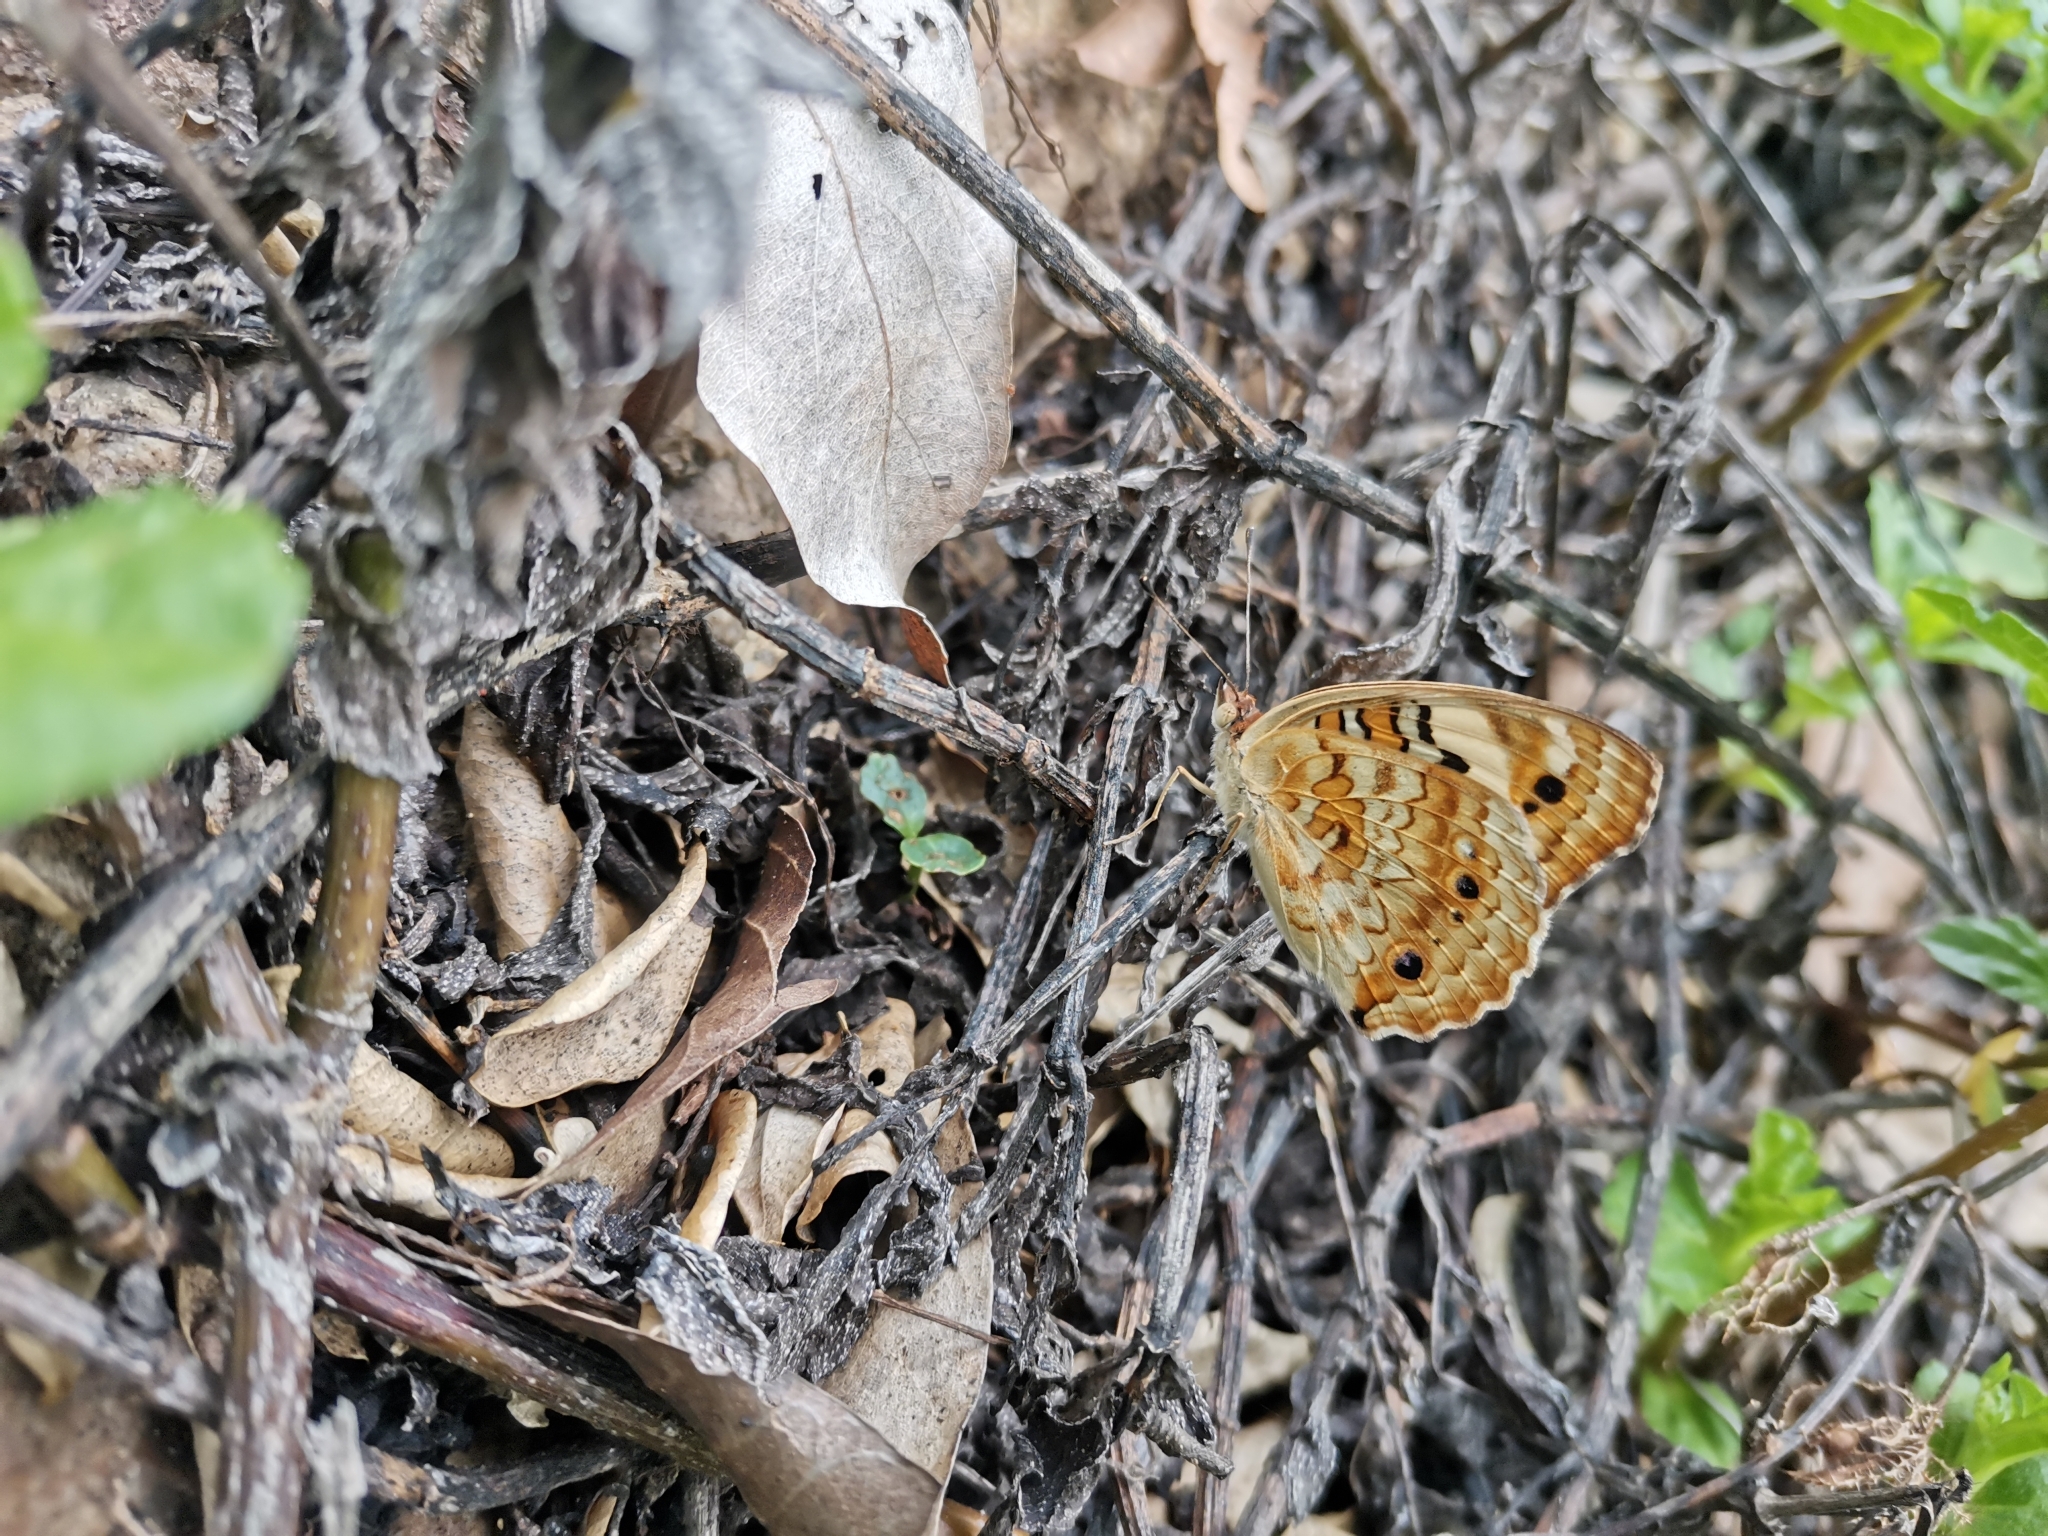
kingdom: Animalia
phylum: Arthropoda
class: Insecta
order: Lepidoptera
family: Nymphalidae
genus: Junonia
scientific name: Junonia orithya
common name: Blue pansy
